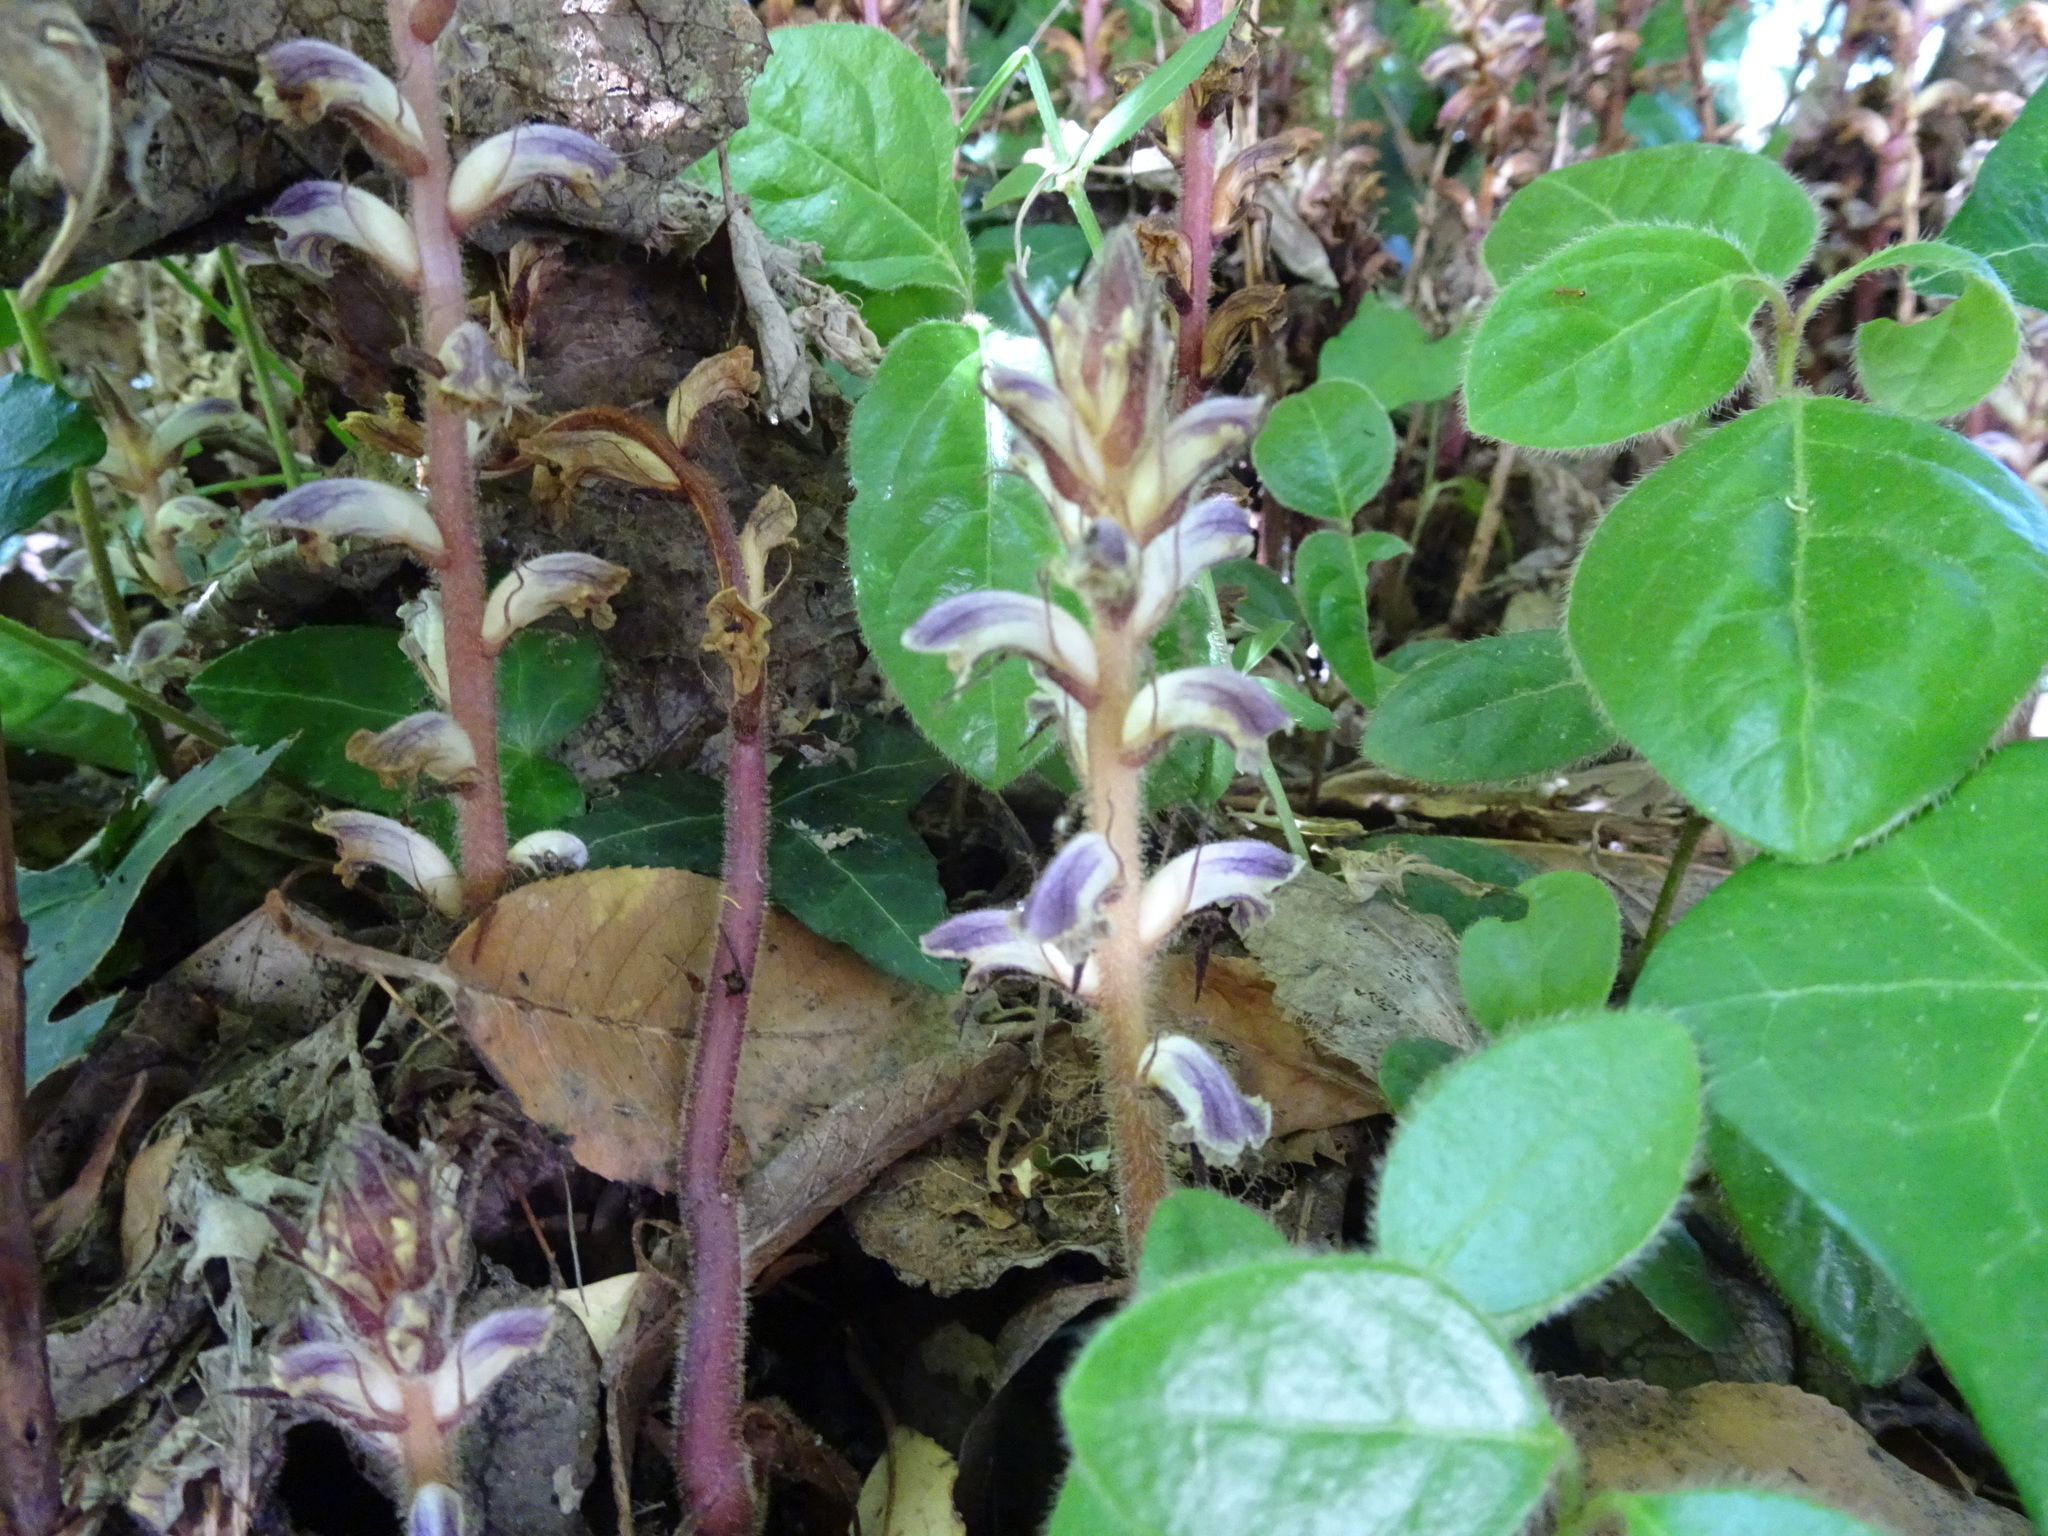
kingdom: Plantae
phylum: Tracheophyta
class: Magnoliopsida
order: Lamiales
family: Orobanchaceae
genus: Orobanche
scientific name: Orobanche hederae
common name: Ivy broomrape
